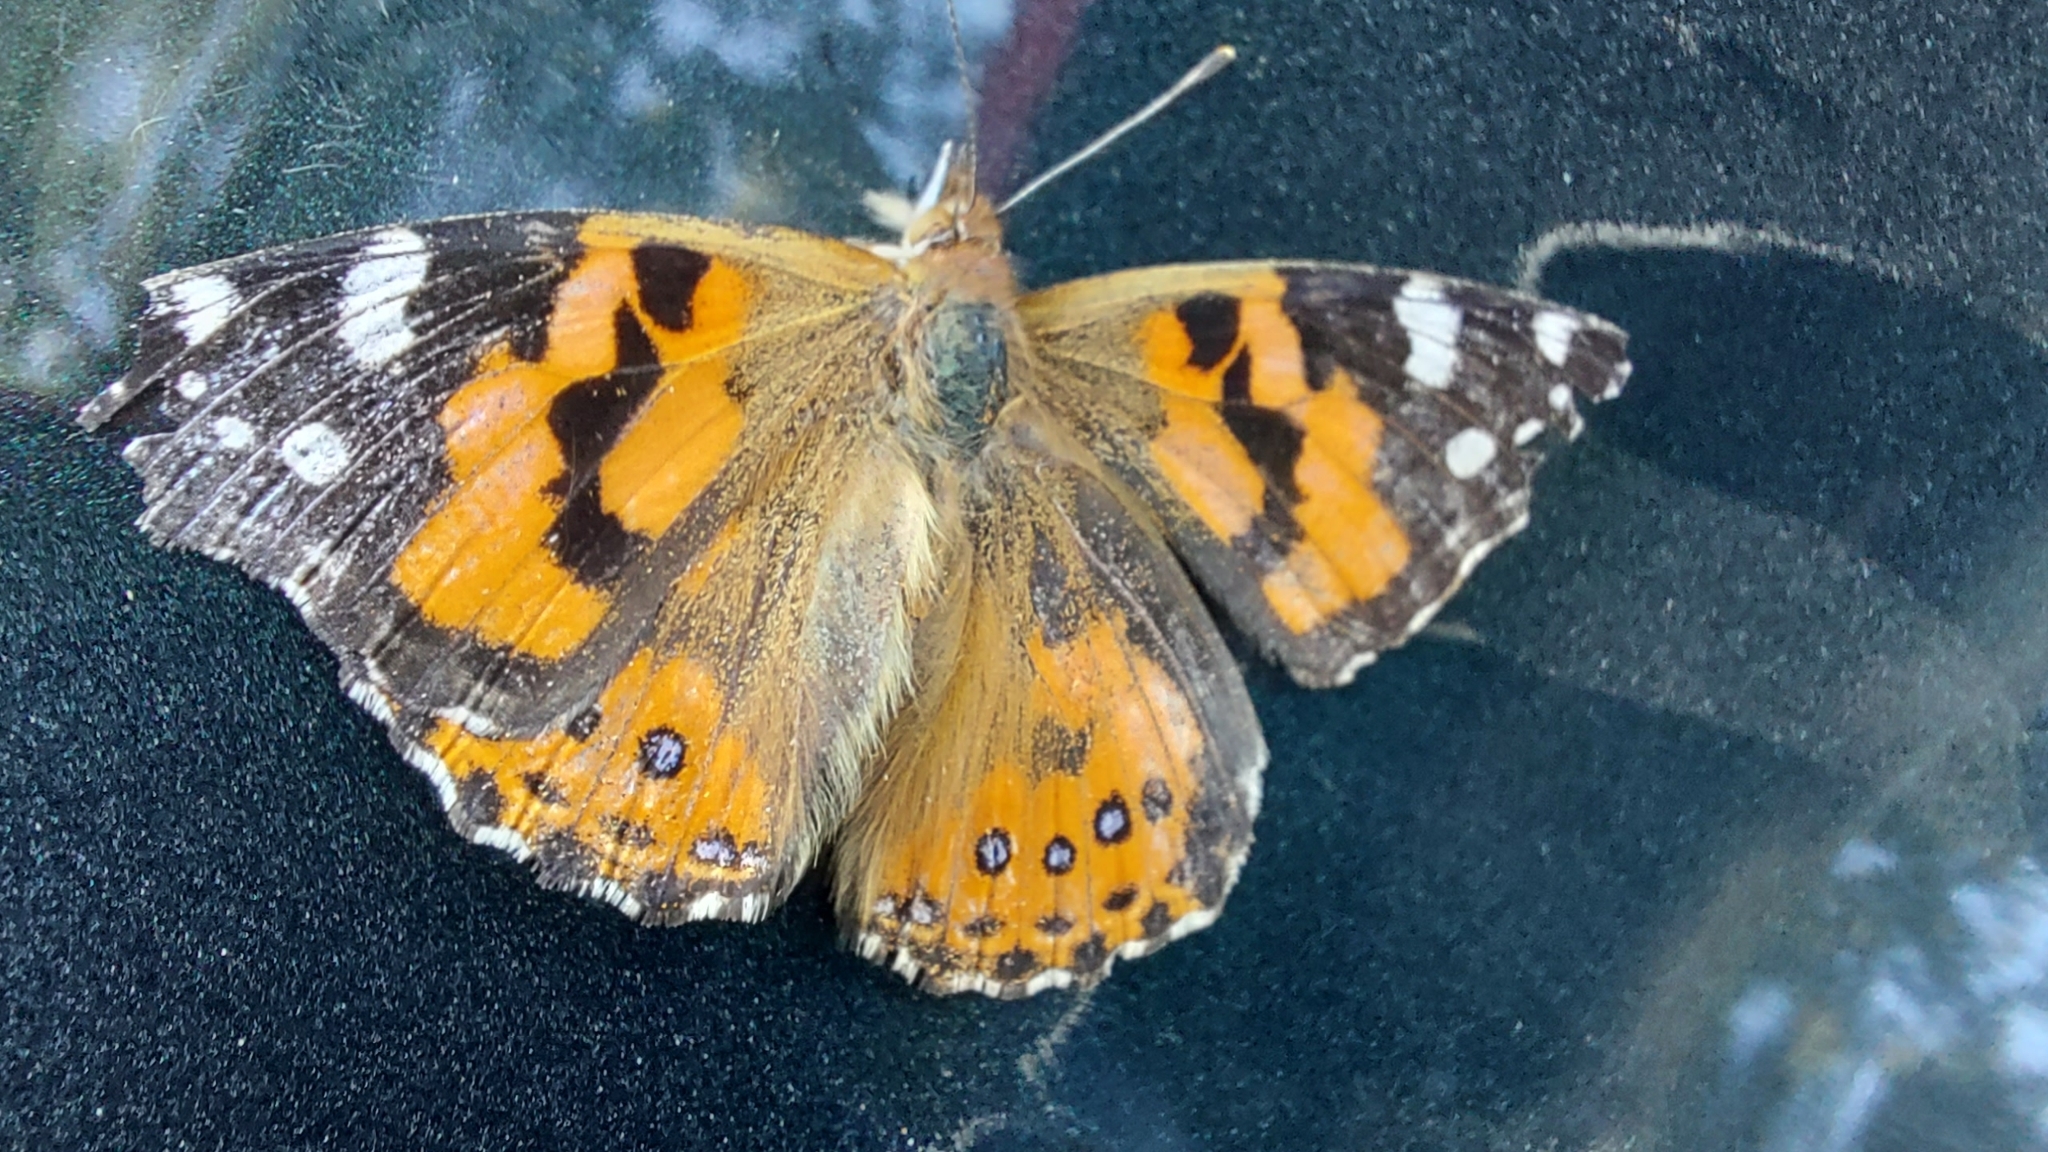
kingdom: Animalia
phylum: Arthropoda
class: Insecta
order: Lepidoptera
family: Nymphalidae
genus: Vanessa
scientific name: Vanessa kershawi
